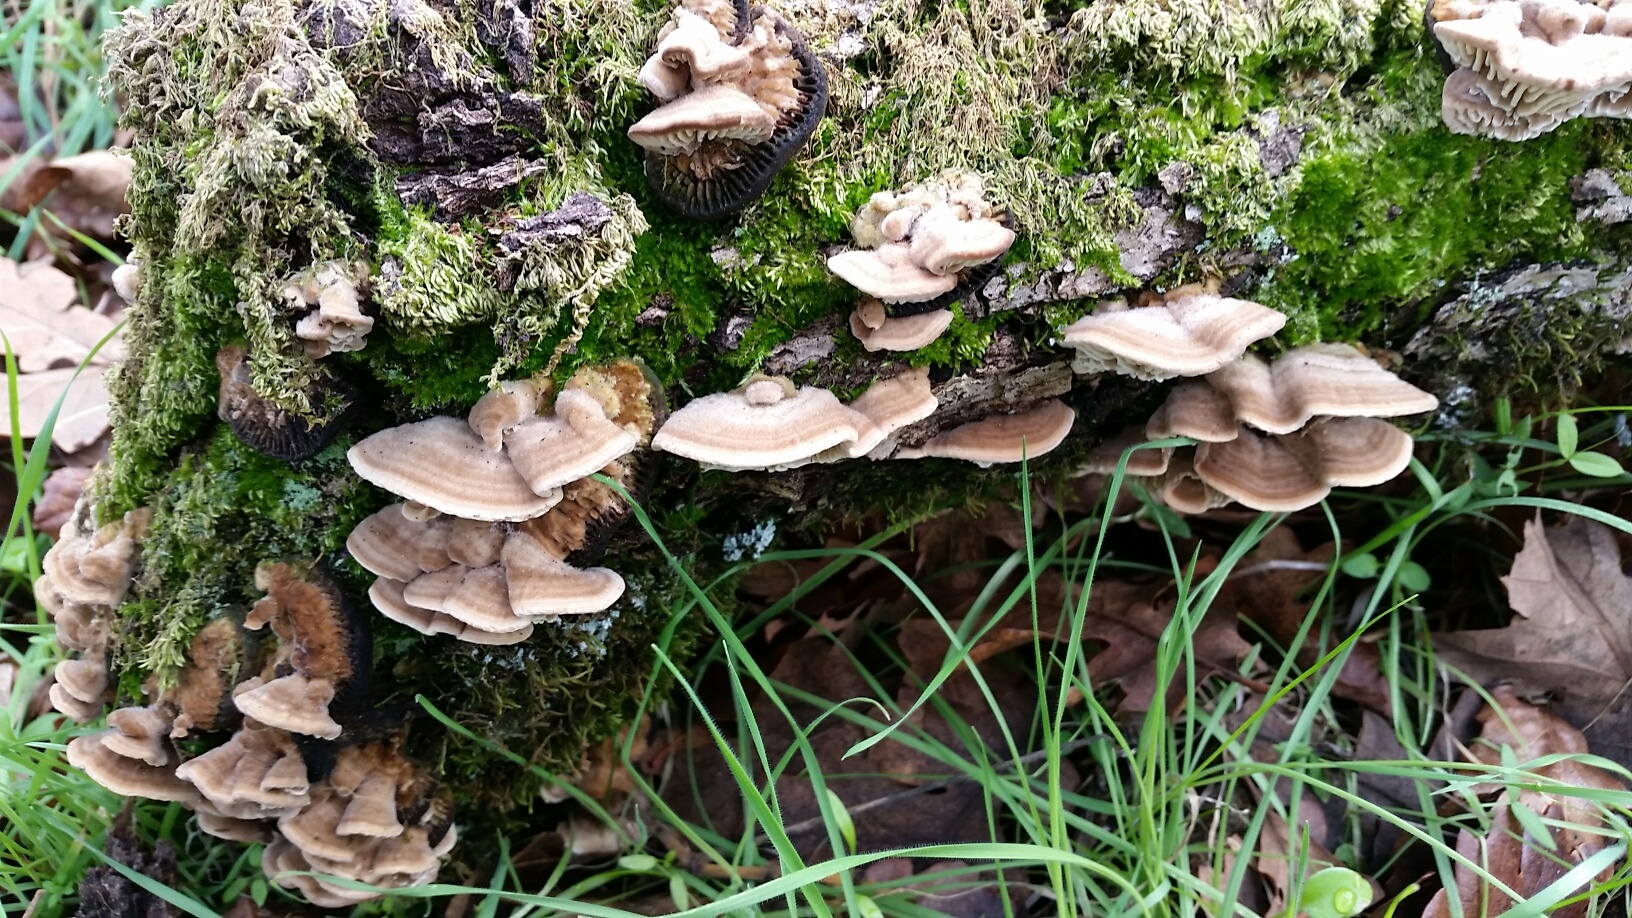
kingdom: Fungi
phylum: Basidiomycota
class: Agaricomycetes
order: Polyporales
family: Fomitopsidaceae
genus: Fomitopsis
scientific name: Fomitopsis
